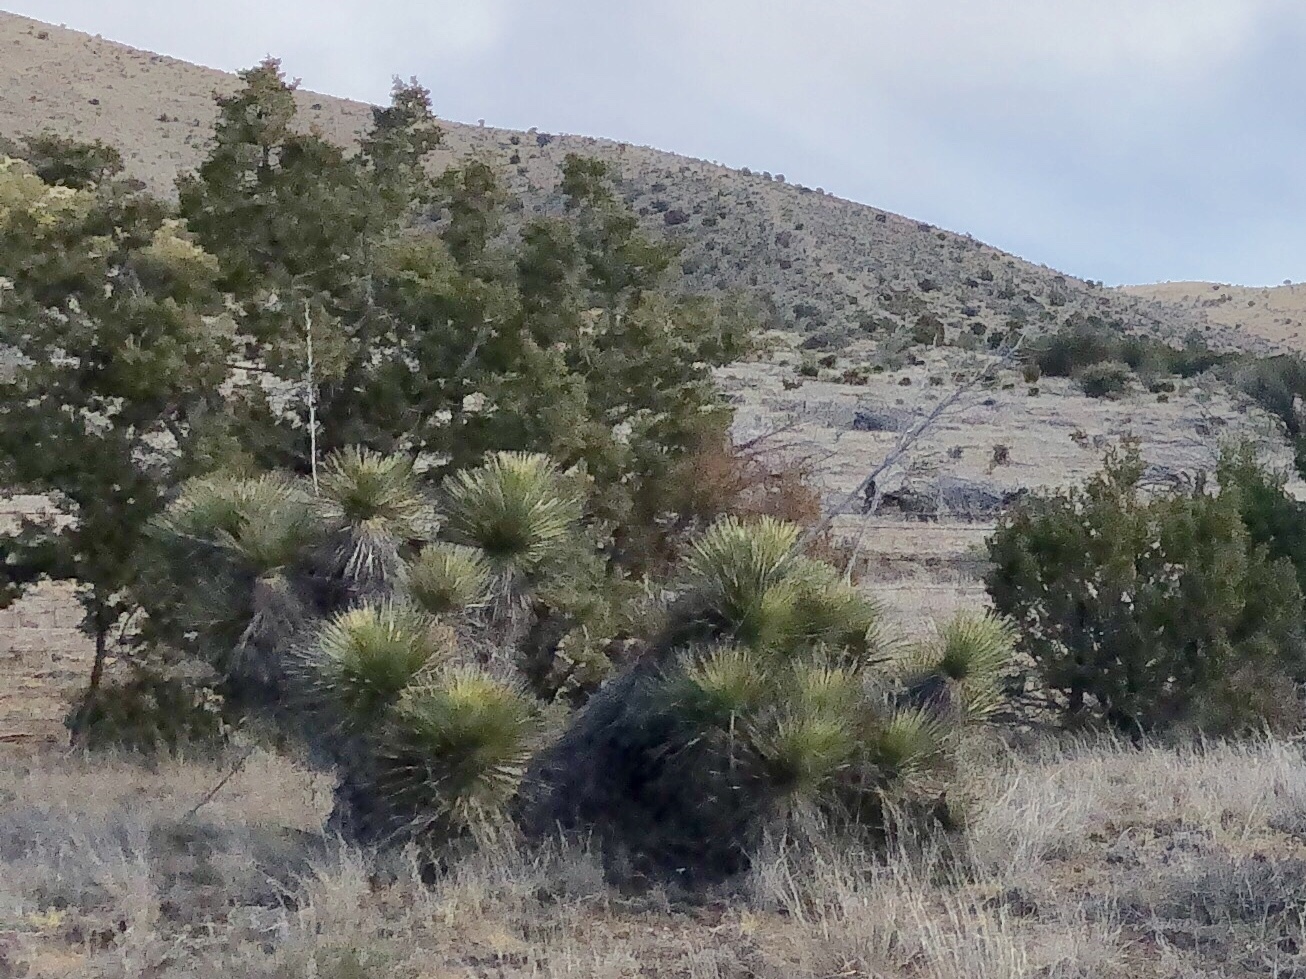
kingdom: Plantae
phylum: Tracheophyta
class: Liliopsida
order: Asparagales
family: Asparagaceae
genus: Yucca
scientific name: Yucca elata
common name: Palmella
